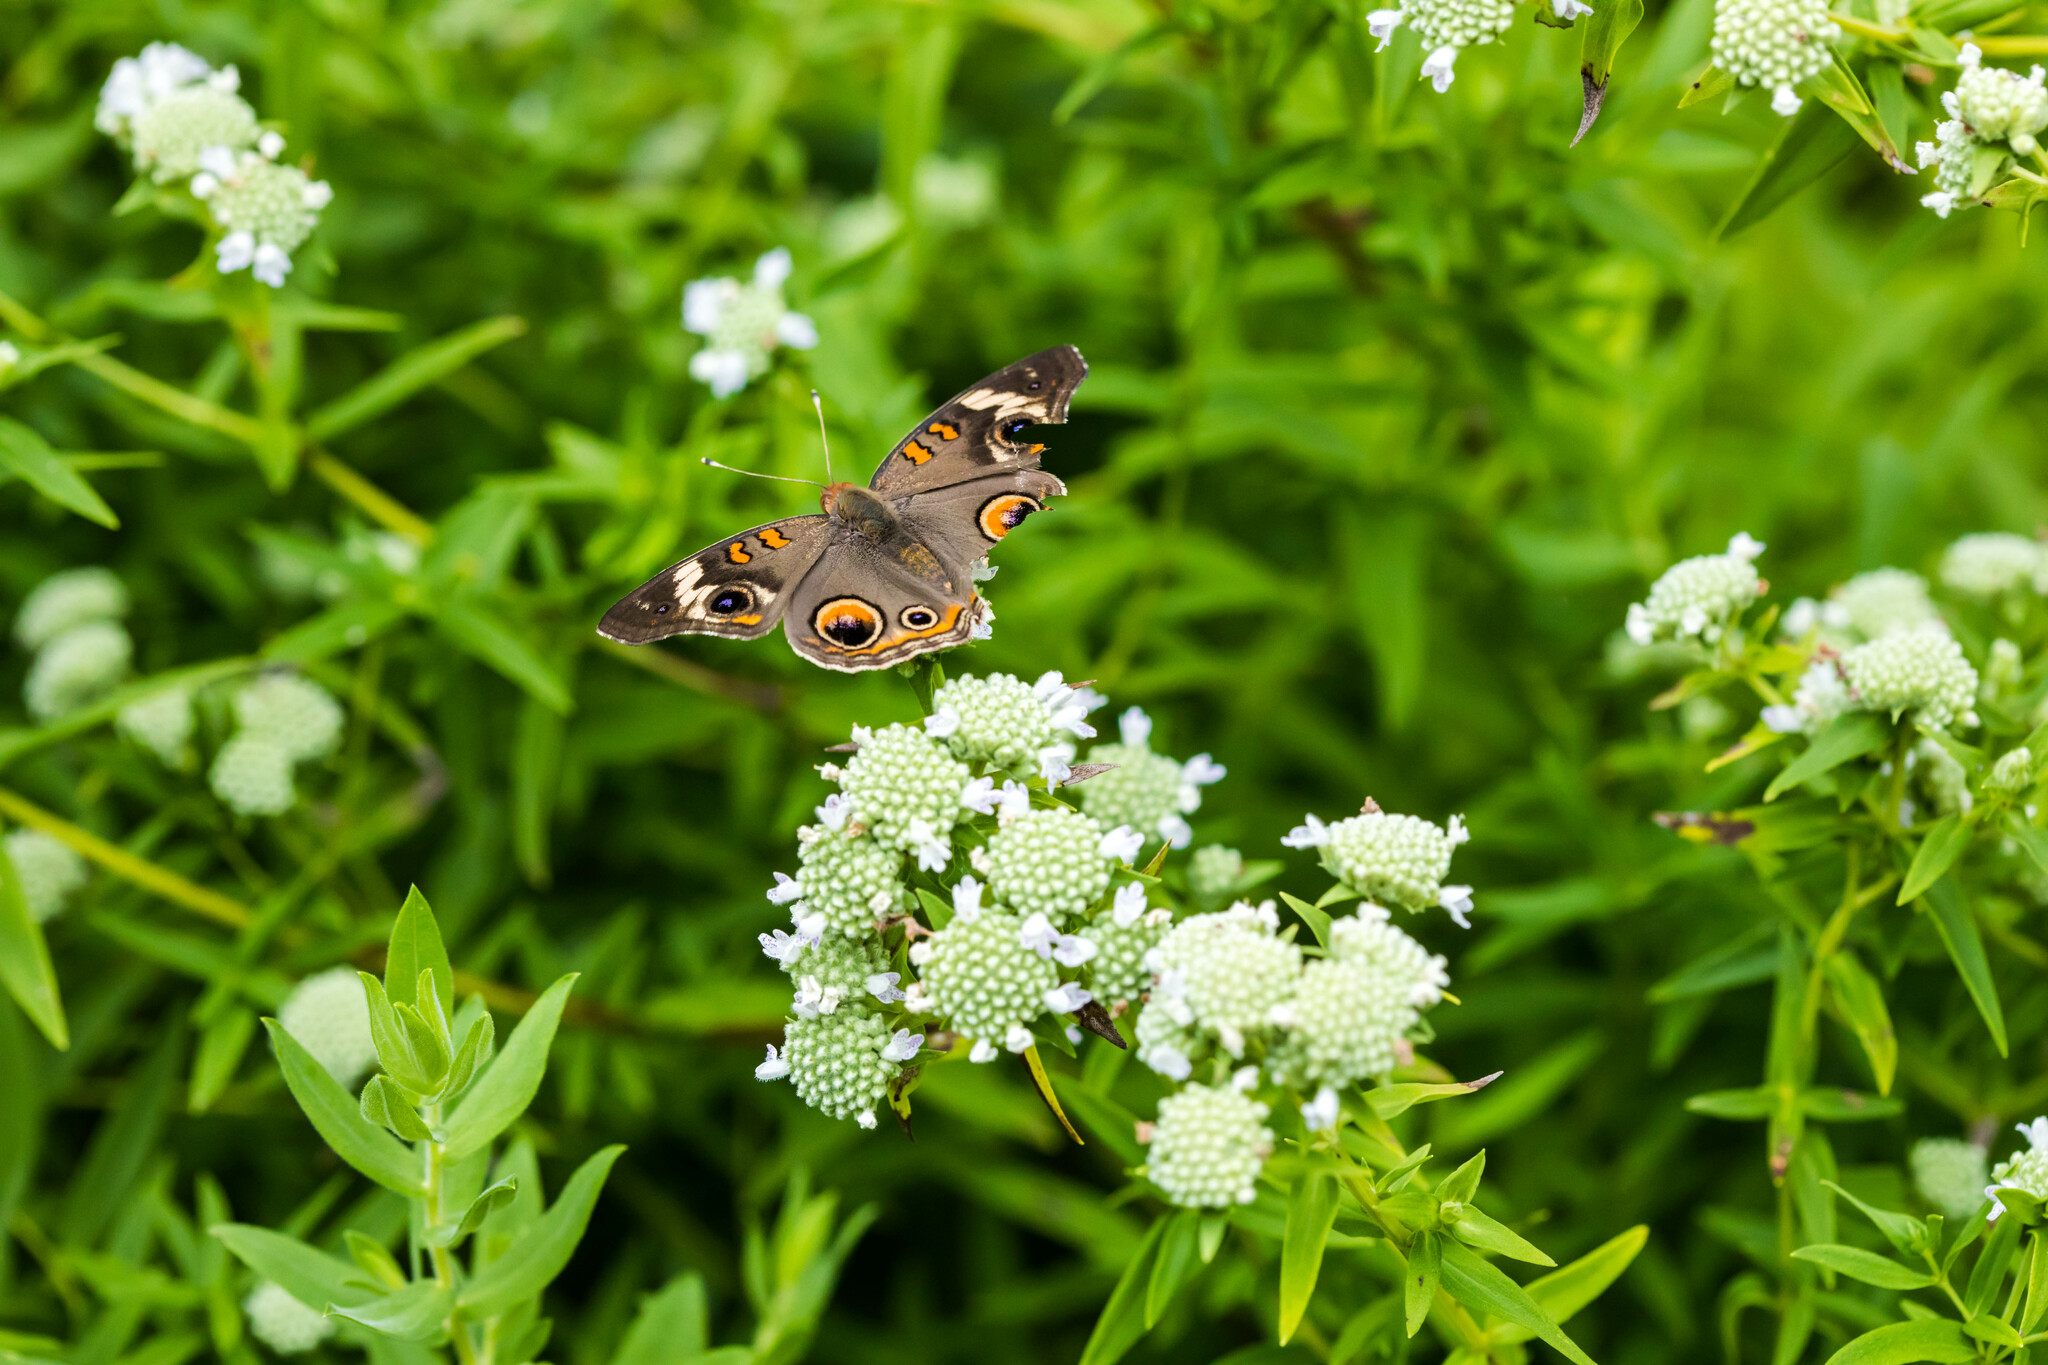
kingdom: Animalia
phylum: Arthropoda
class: Insecta
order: Lepidoptera
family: Nymphalidae
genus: Junonia
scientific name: Junonia coenia
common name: Common buckeye
